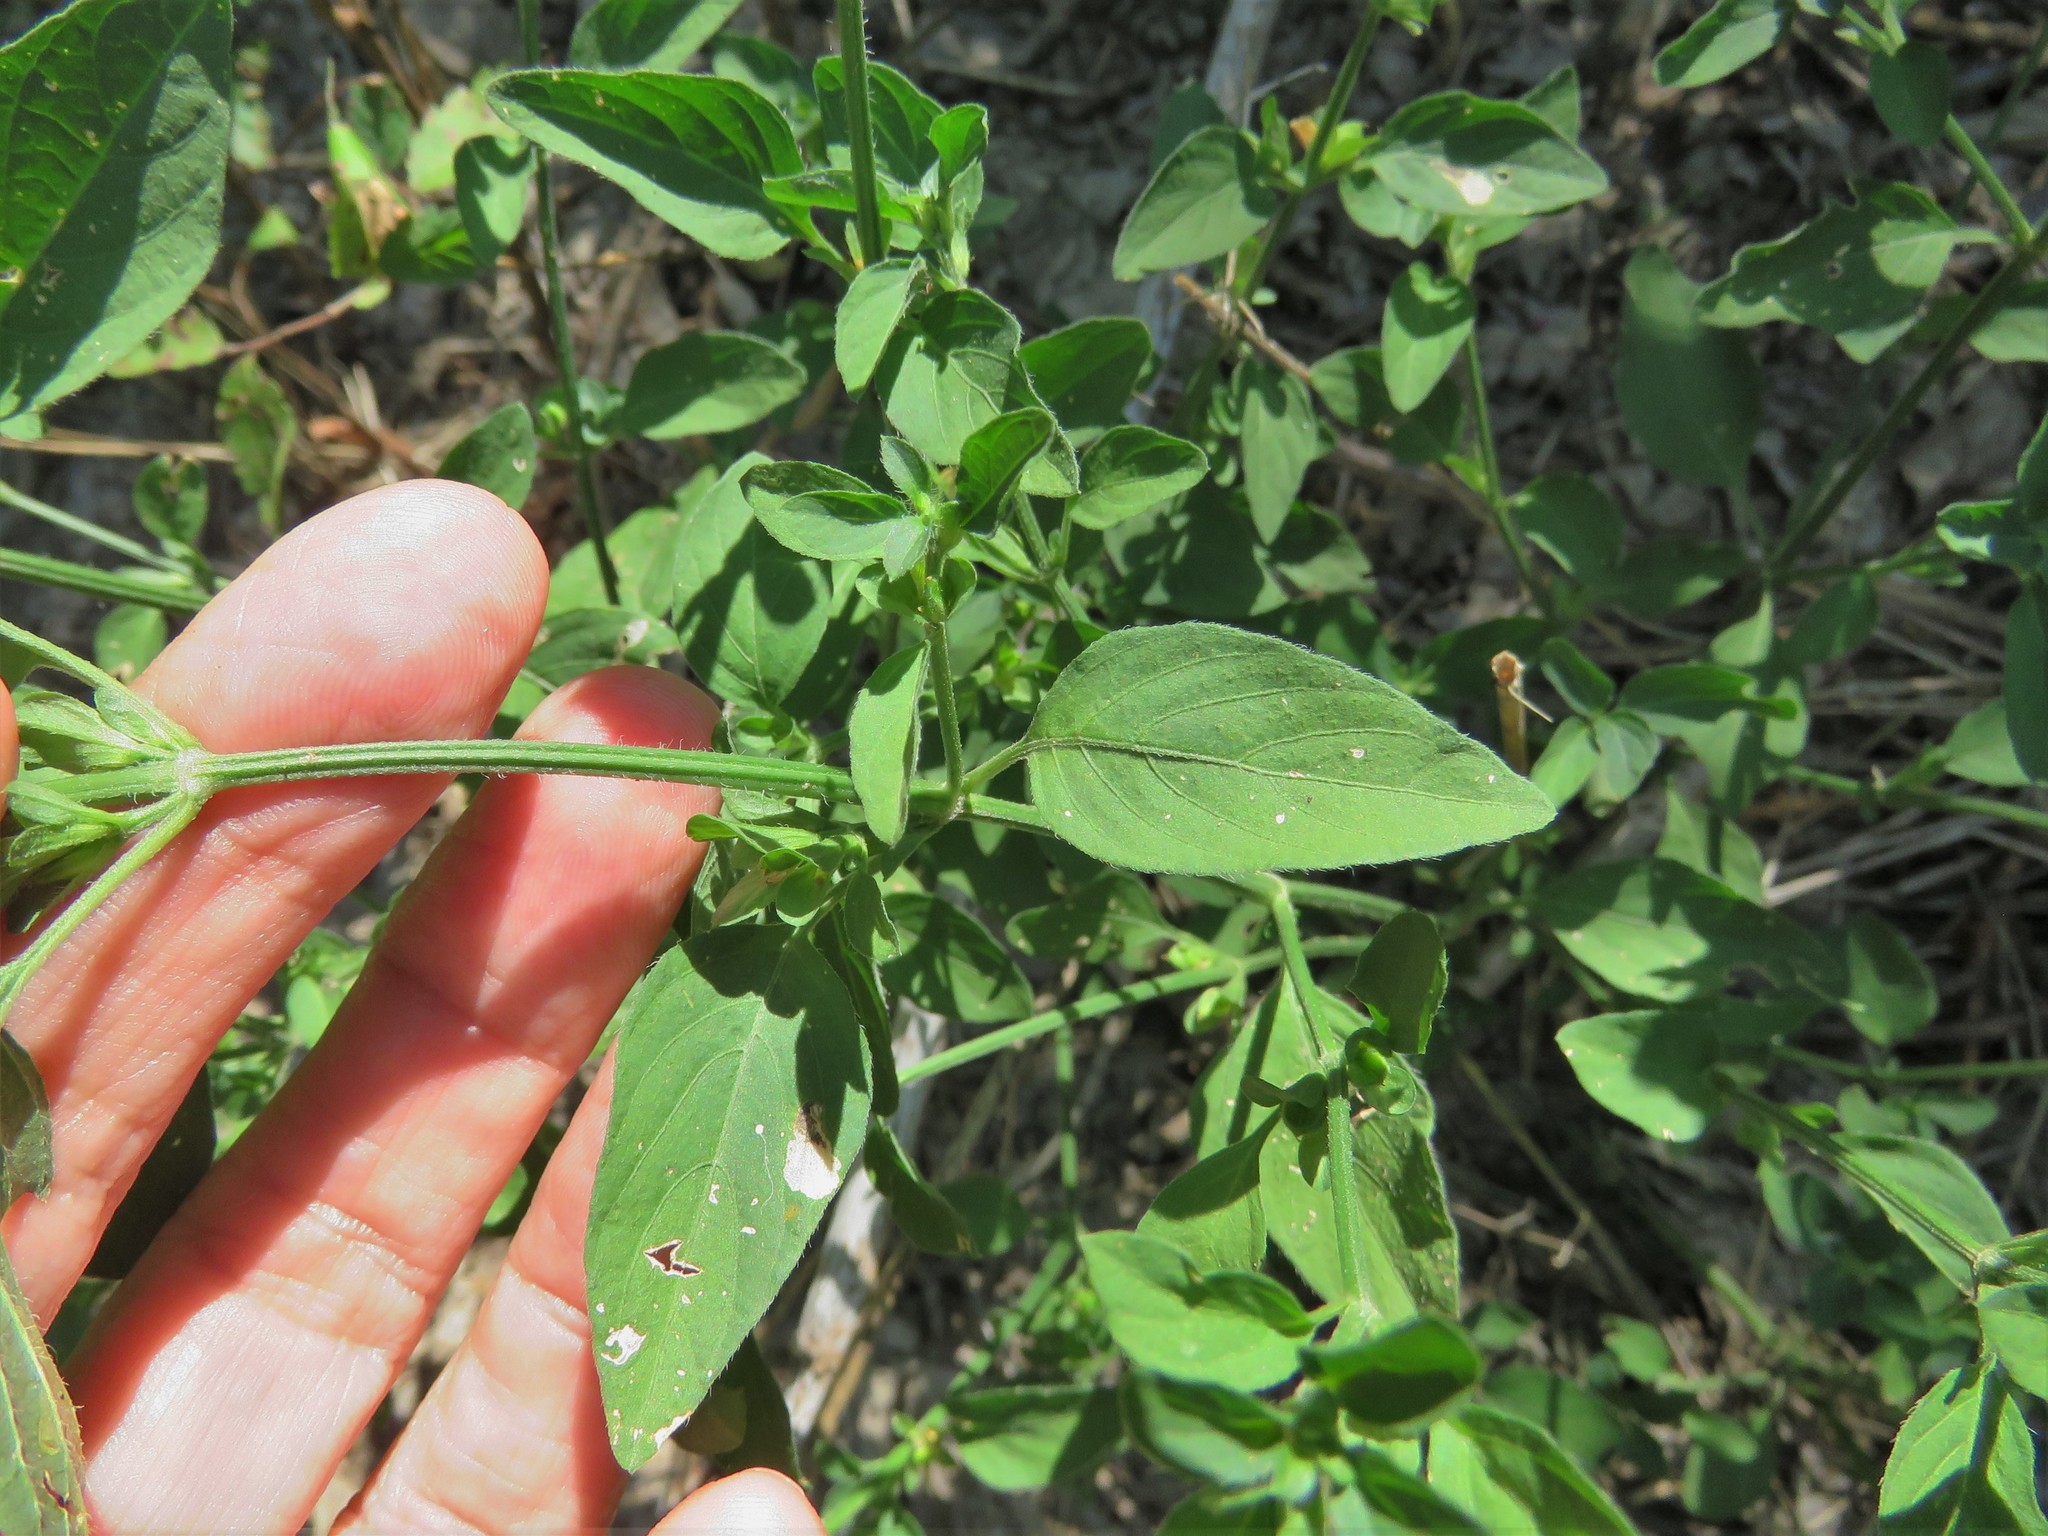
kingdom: Plantae
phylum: Tracheophyta
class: Magnoliopsida
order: Lamiales
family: Acanthaceae
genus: Dicliptera
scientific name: Dicliptera brachiata
